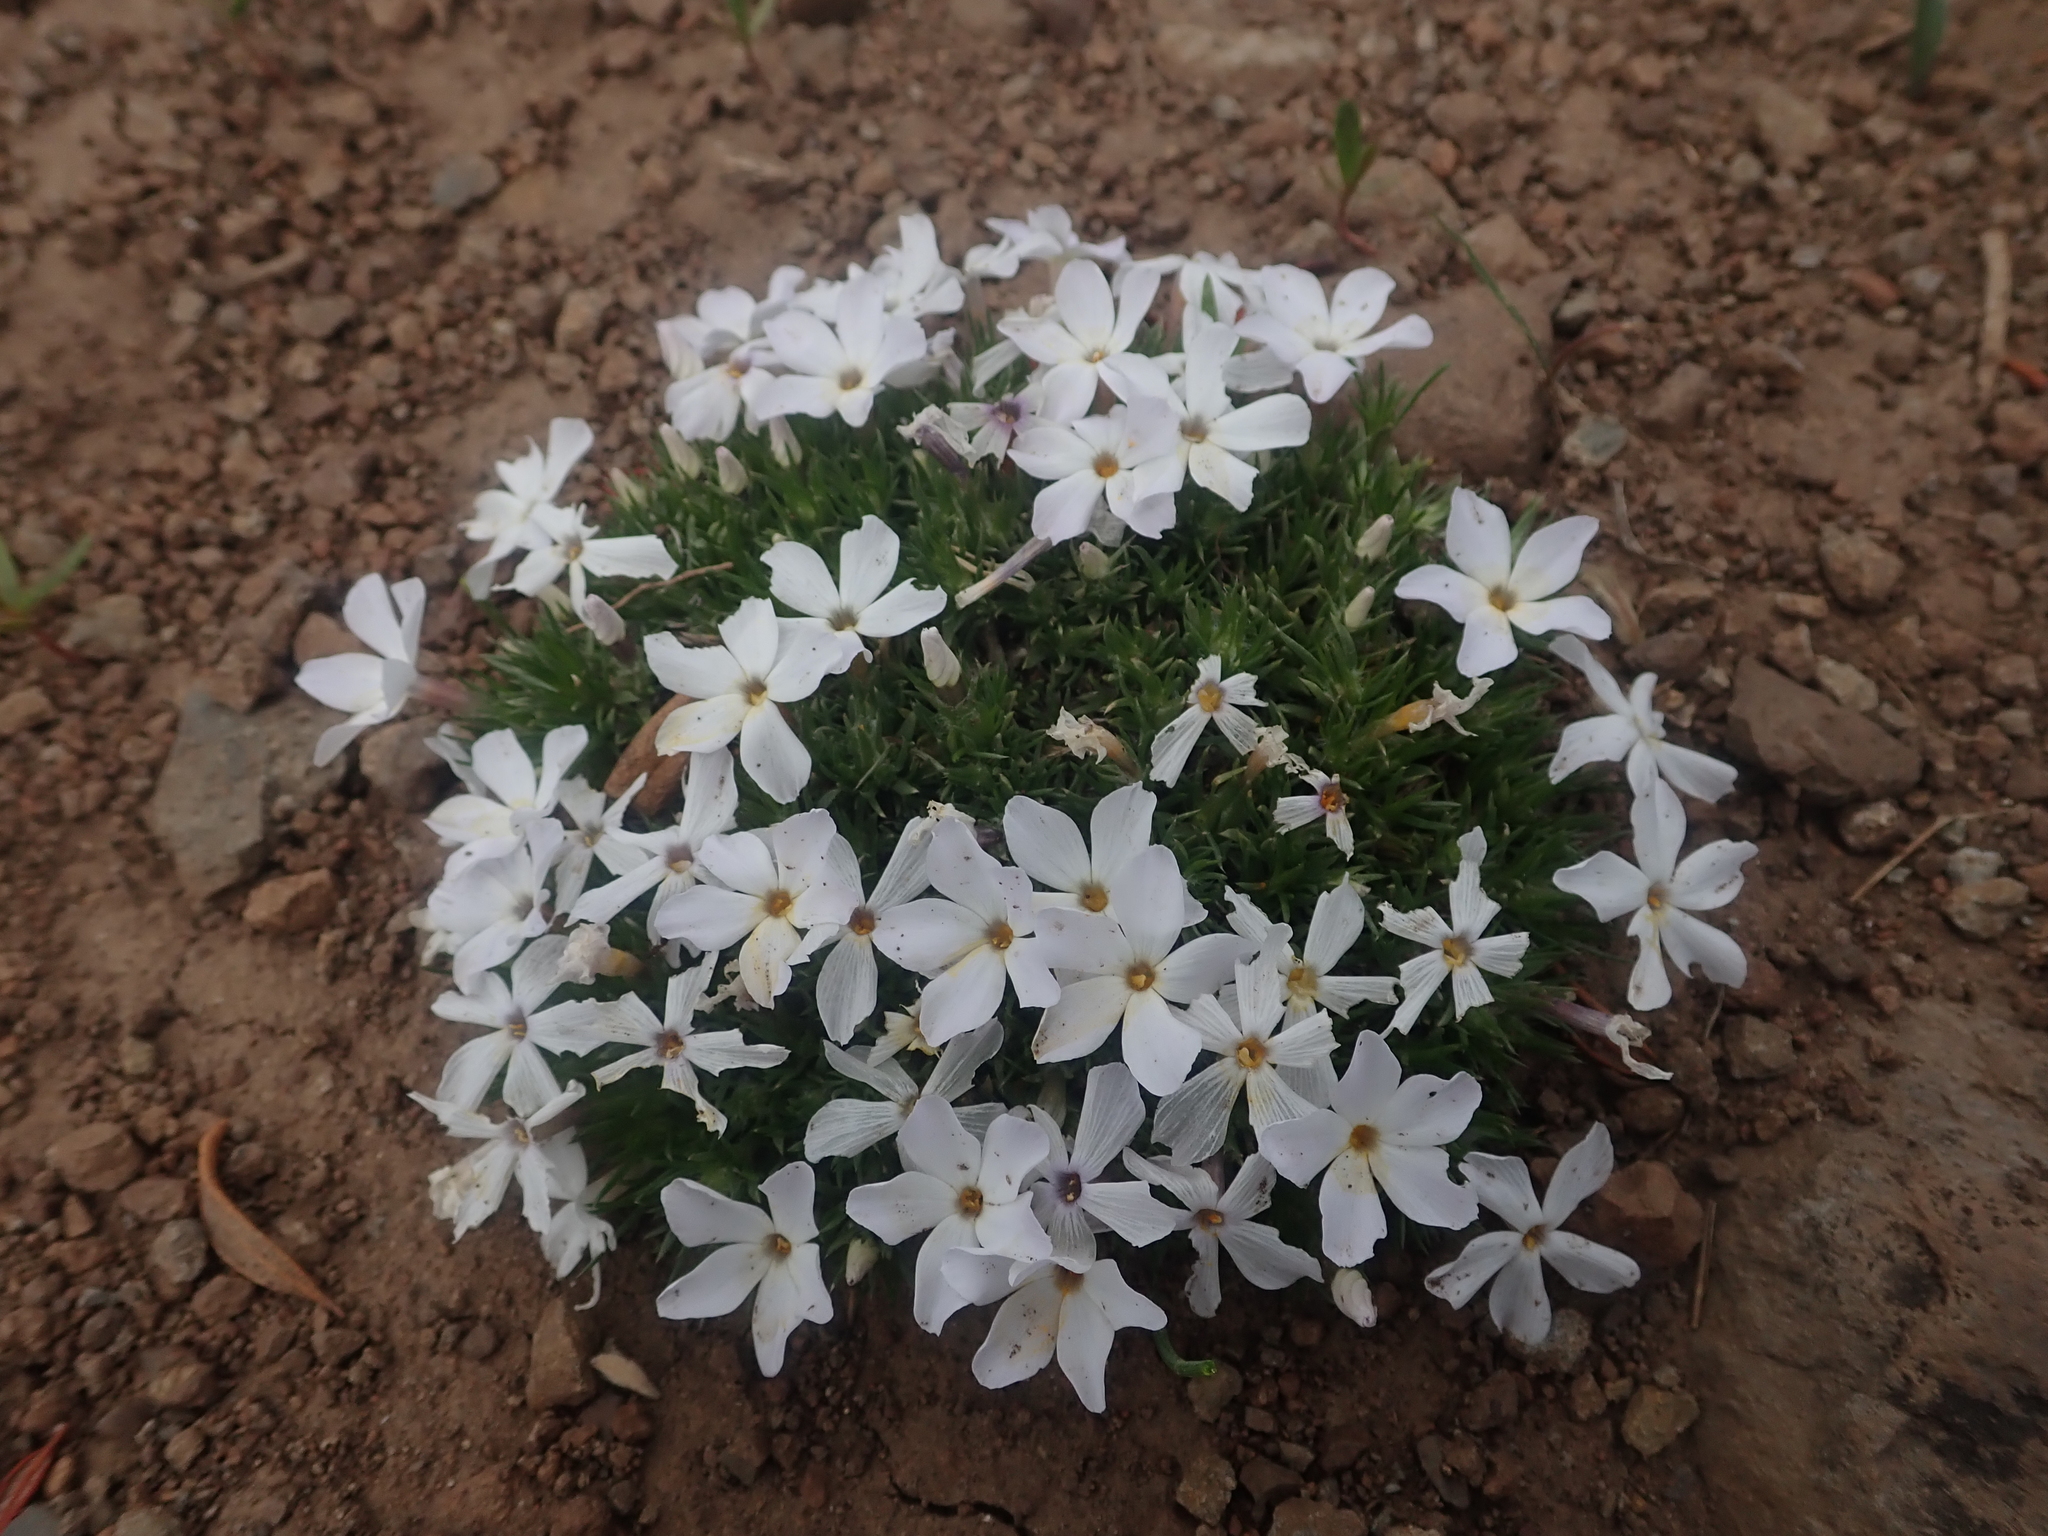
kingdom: Plantae
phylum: Tracheophyta
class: Magnoliopsida
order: Ericales
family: Polemoniaceae
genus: Phlox
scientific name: Phlox hoodii
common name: Moss phlox
